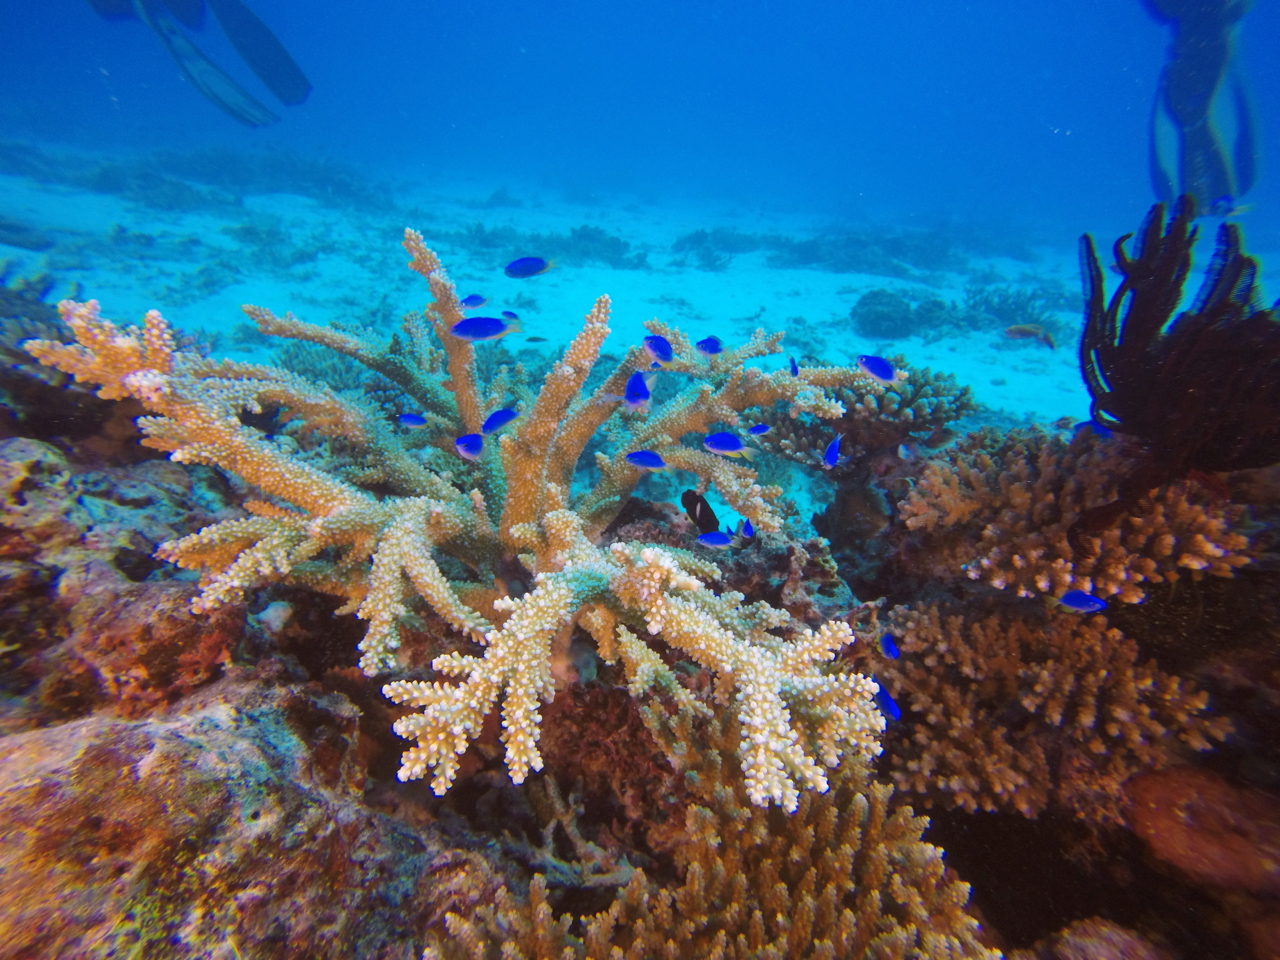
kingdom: Animalia
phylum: Chordata
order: Perciformes
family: Pomacentridae
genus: Pomacentrus
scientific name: Pomacentrus coelestis
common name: Neon damsel
